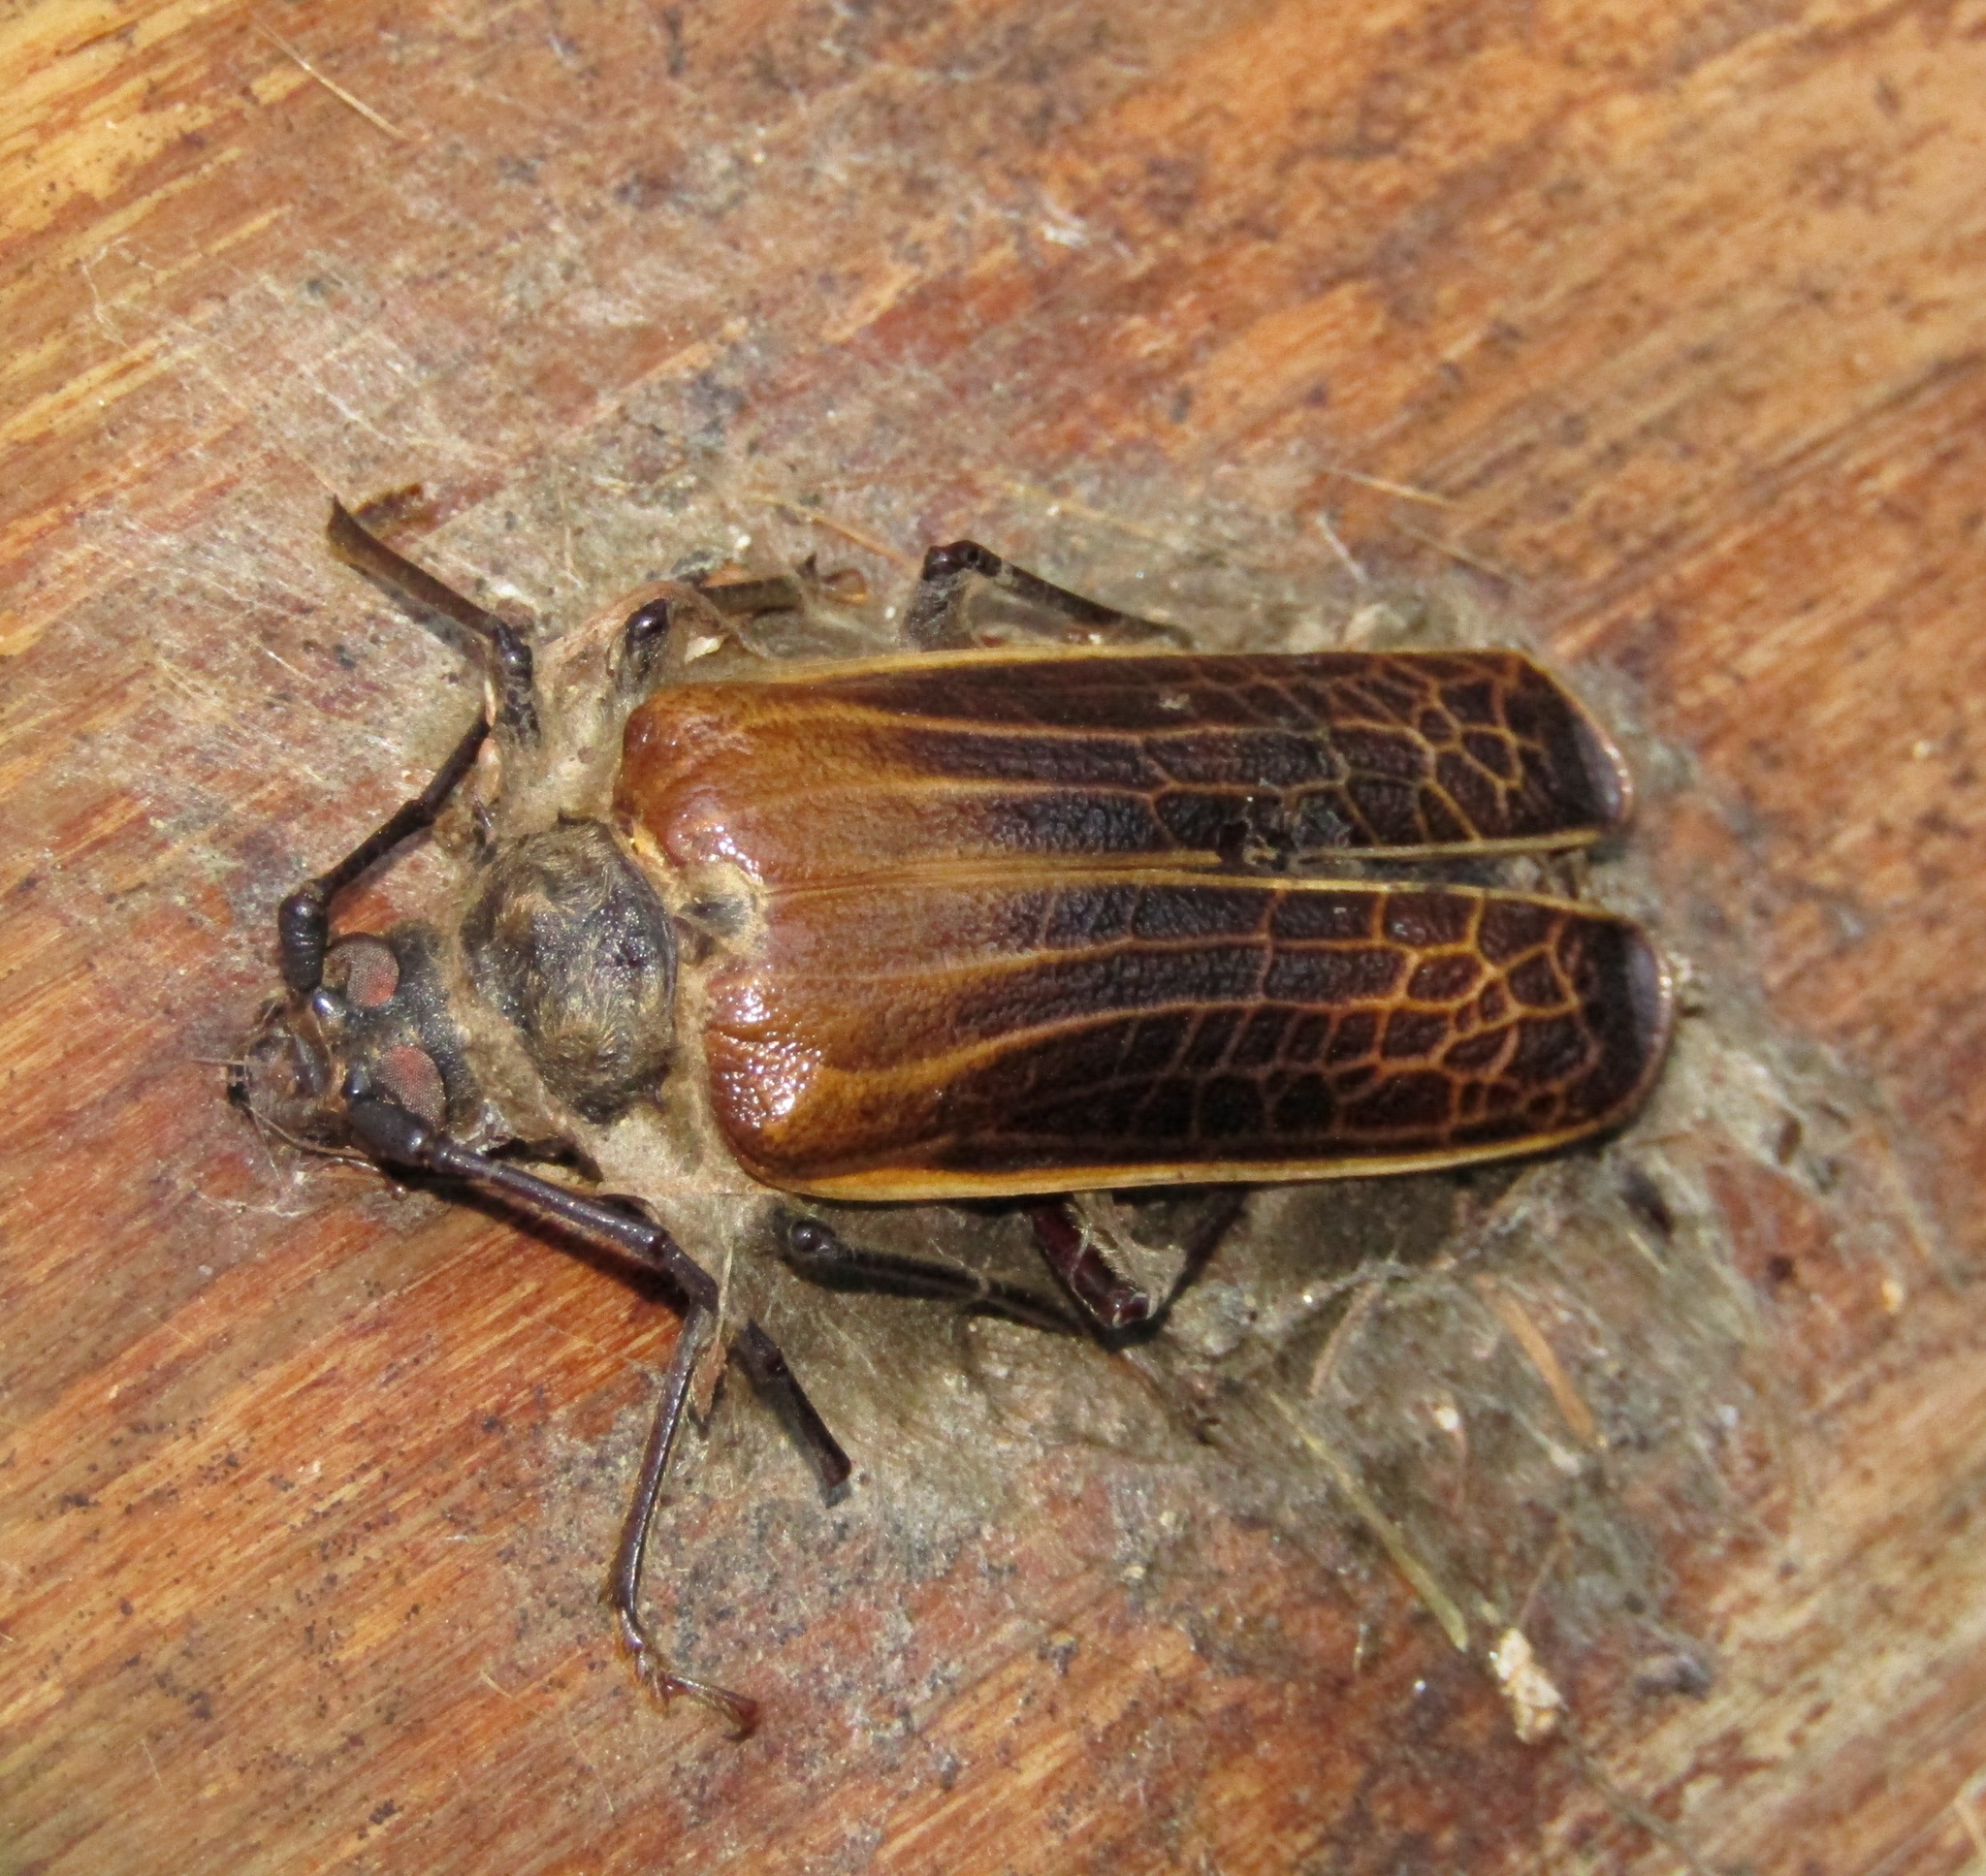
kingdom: Animalia
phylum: Arthropoda
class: Insecta
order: Coleoptera
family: Cerambycidae
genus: Prionoplus
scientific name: Prionoplus reticularis
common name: Huhu beetle
